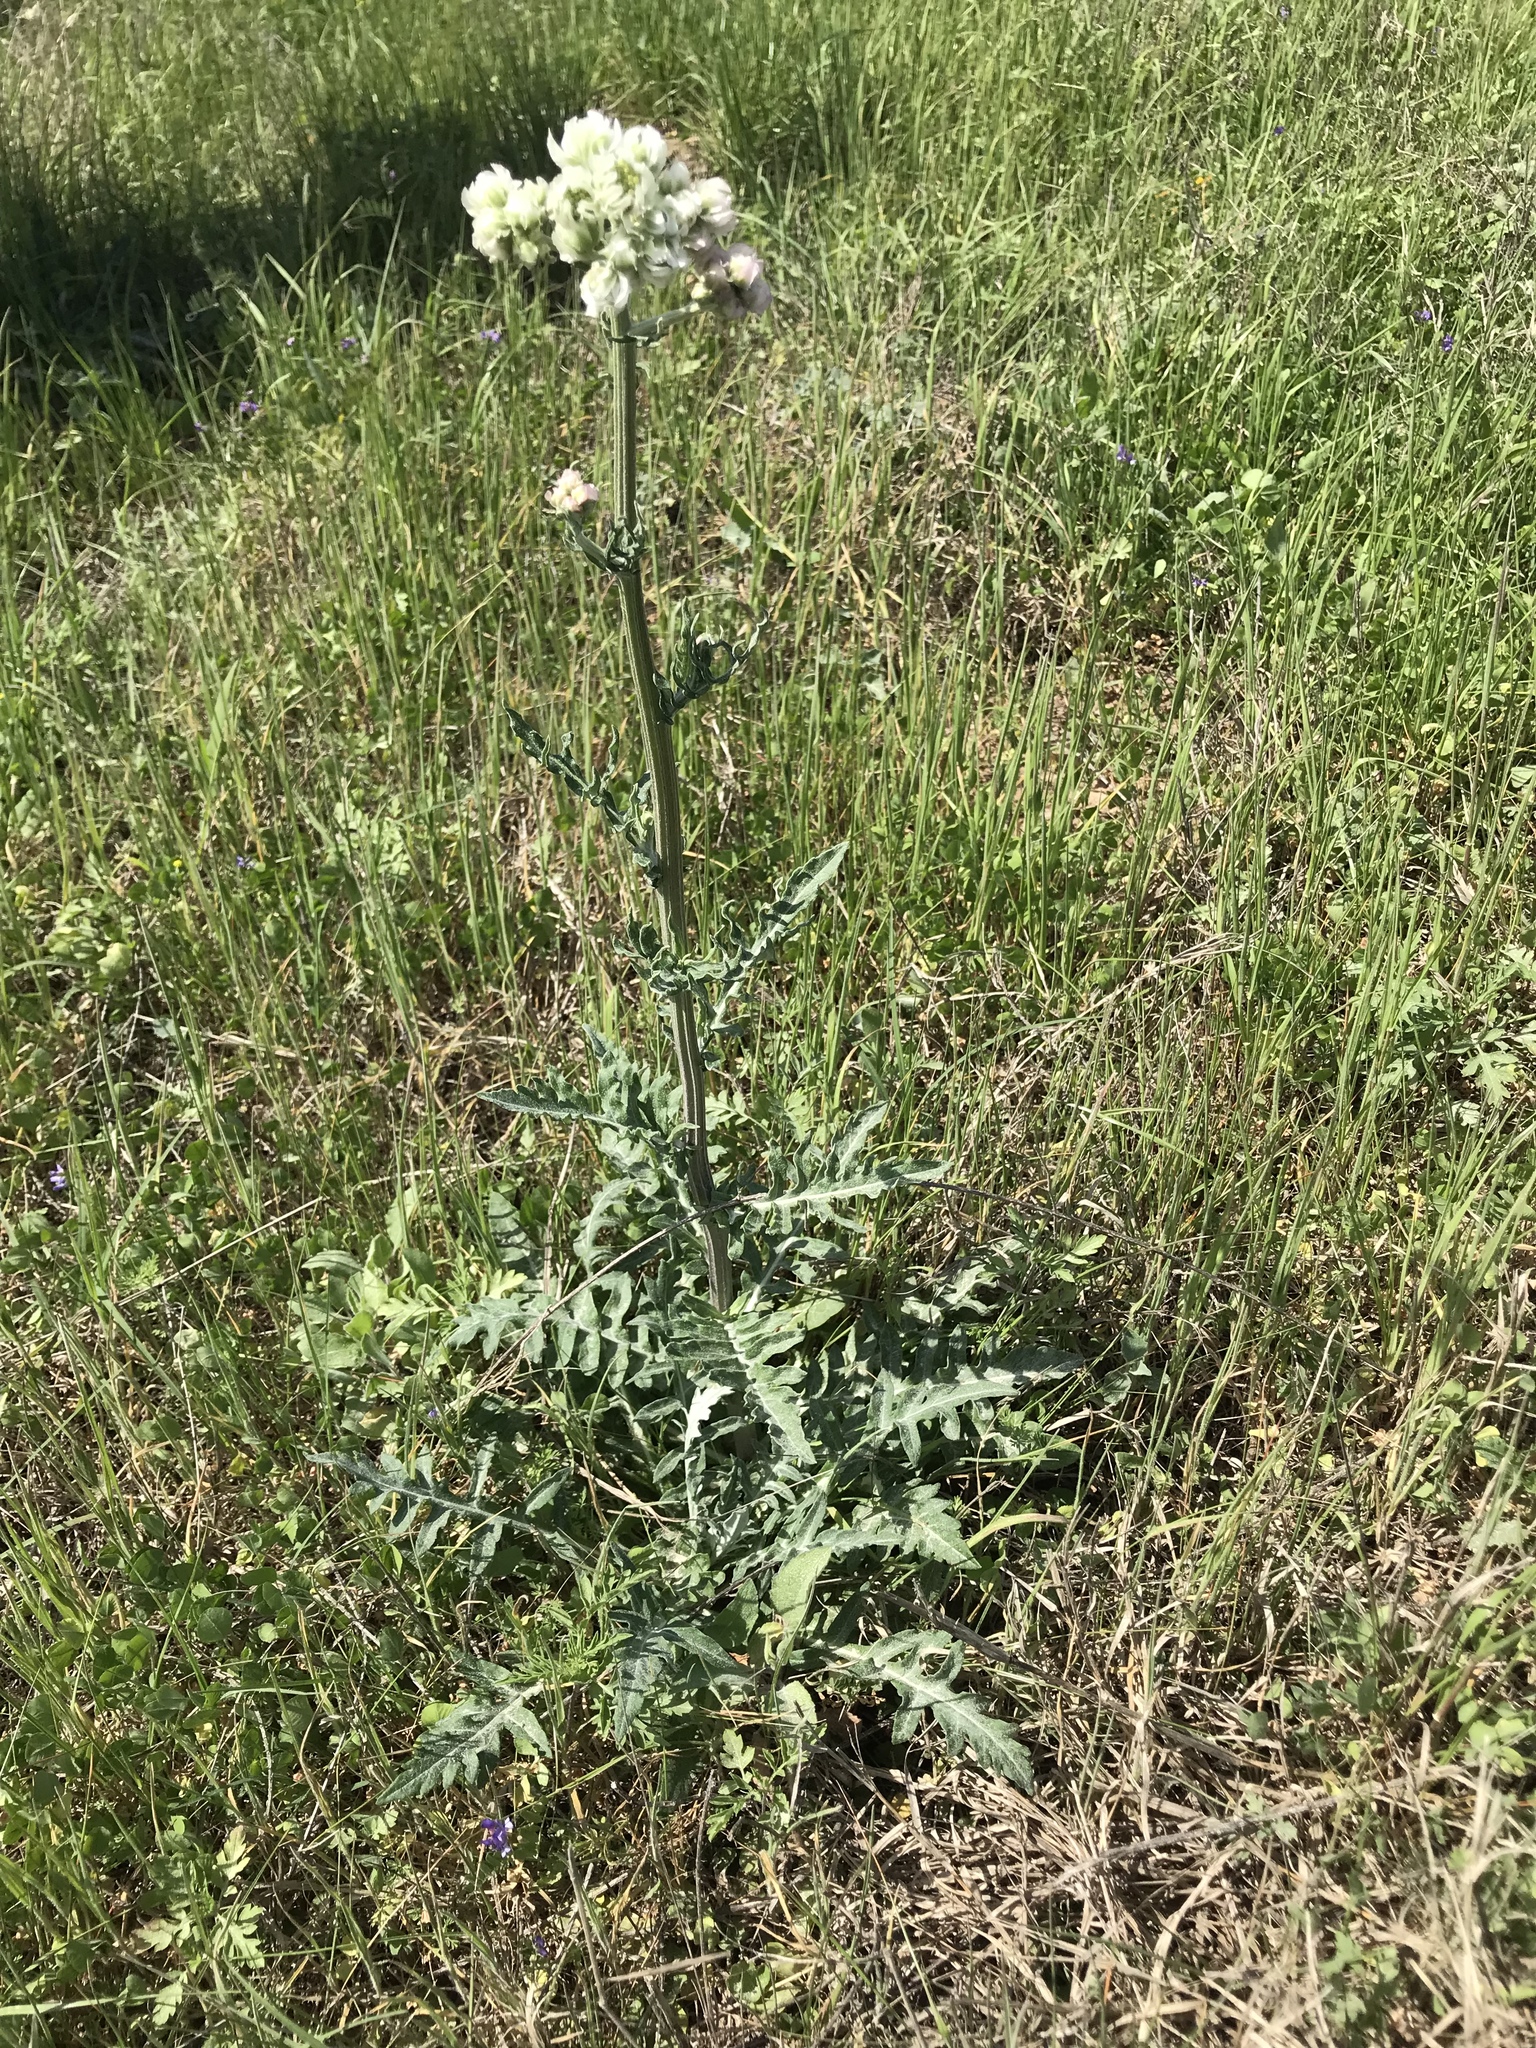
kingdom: Plantae
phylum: Tracheophyta
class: Magnoliopsida
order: Asterales
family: Asteraceae
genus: Hymenopappus
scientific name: Hymenopappus artemisiifolius
